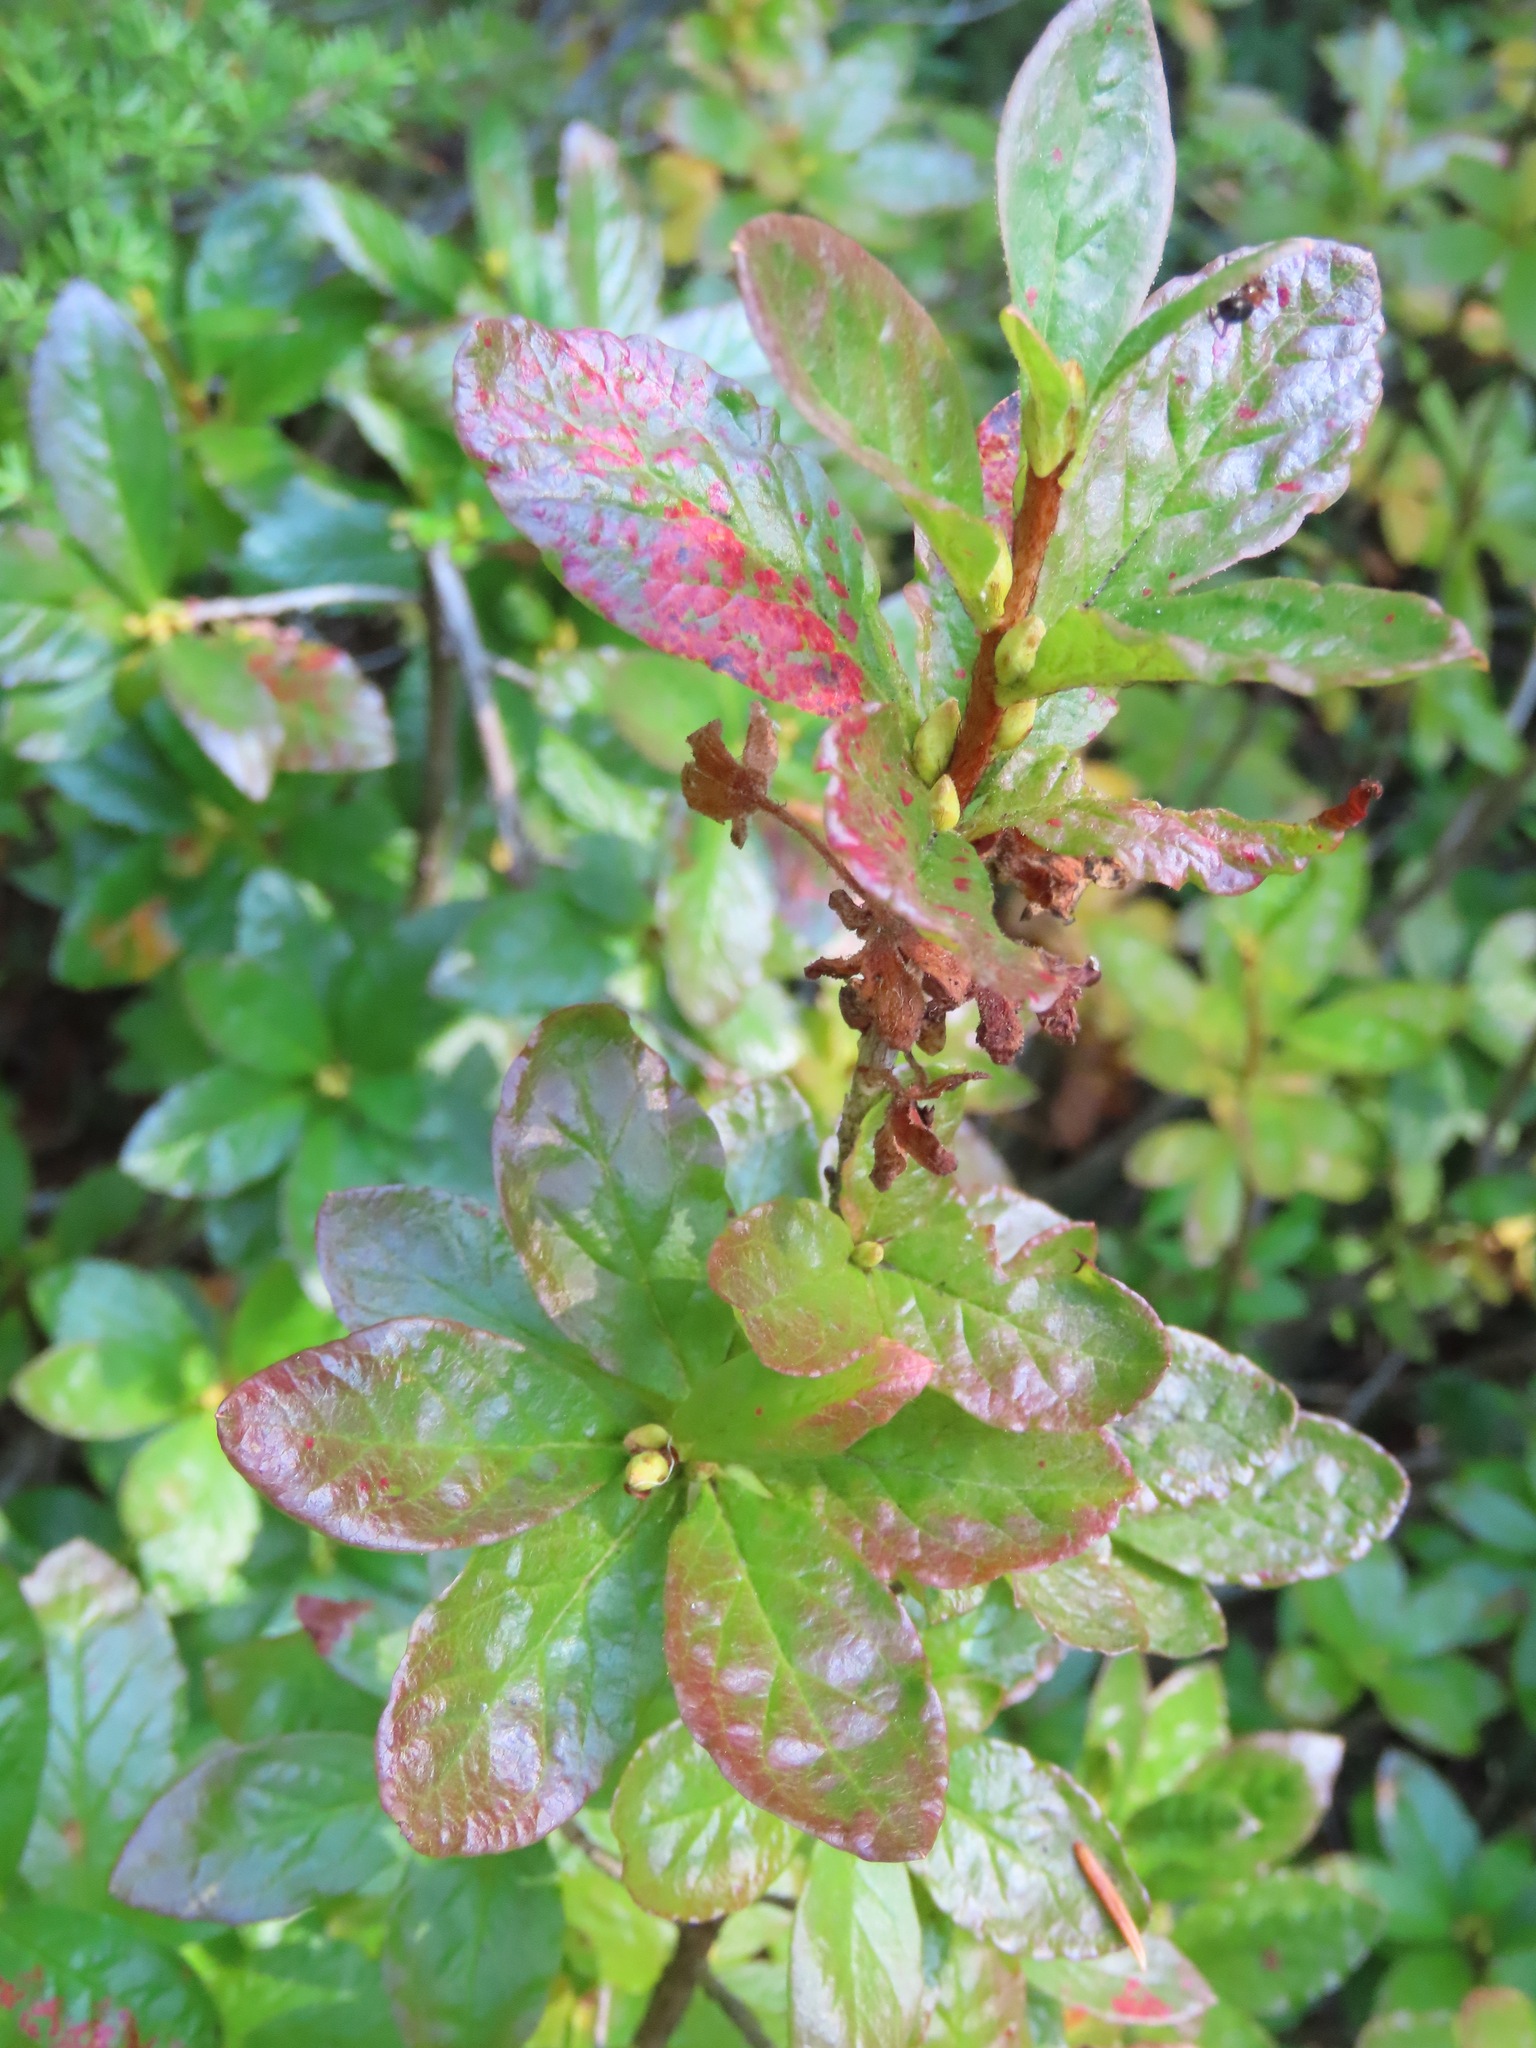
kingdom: Plantae
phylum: Tracheophyta
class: Magnoliopsida
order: Ericales
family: Ericaceae
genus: Rhododendron
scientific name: Rhododendron albiflorum
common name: White rhododendron
